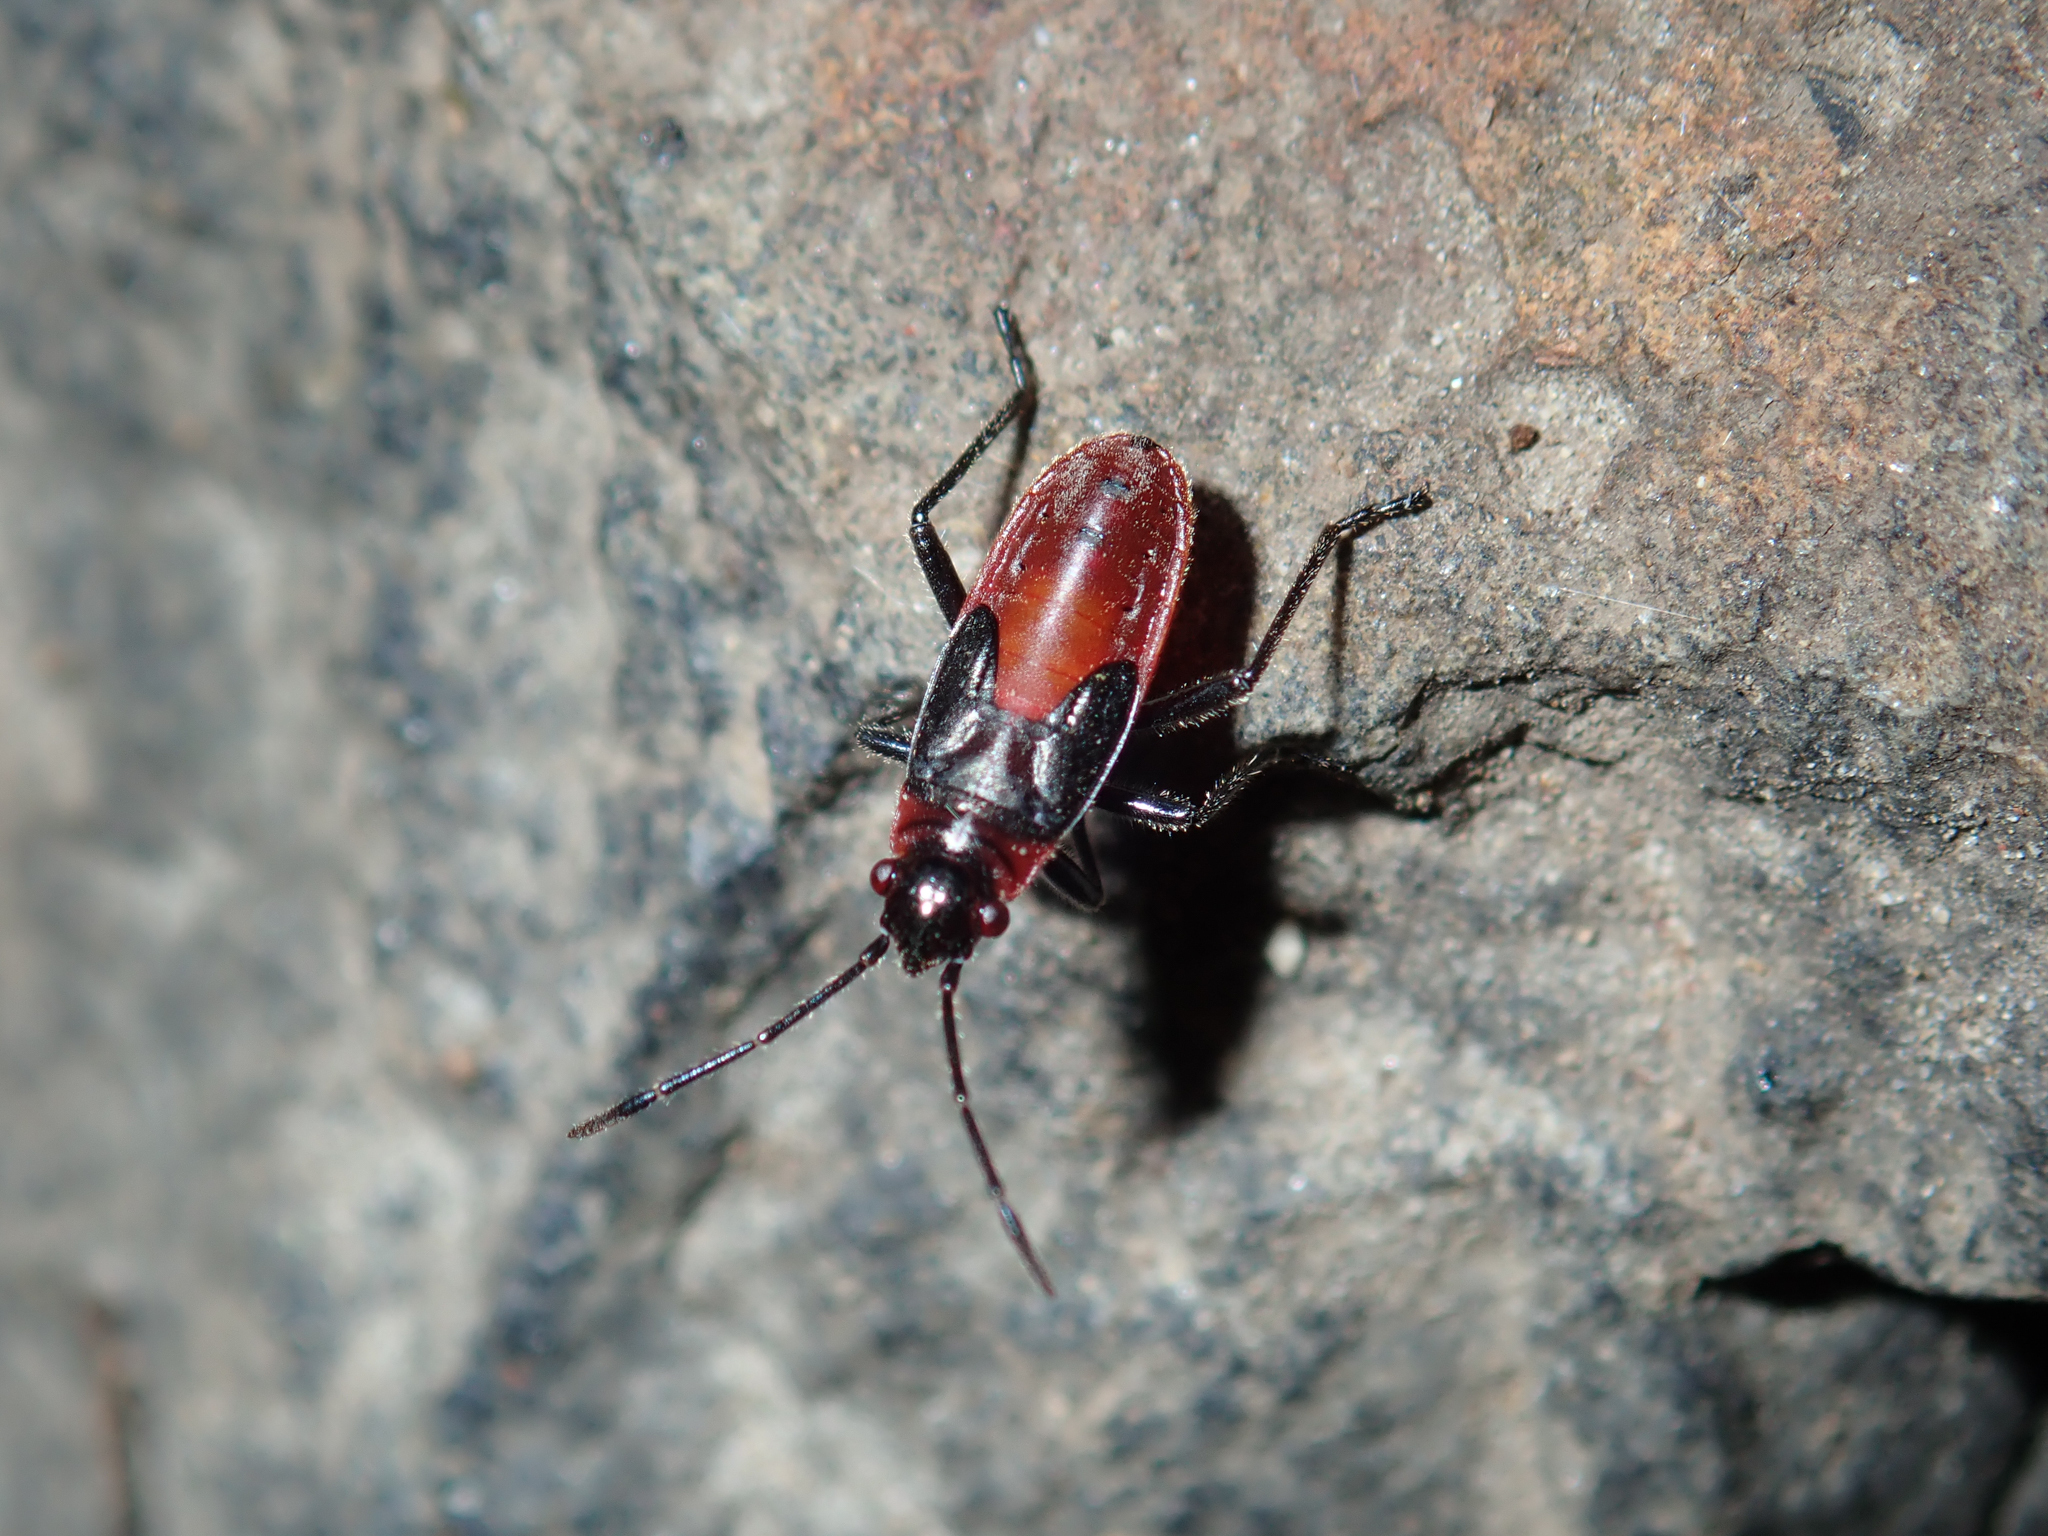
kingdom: Animalia
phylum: Arthropoda
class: Insecta
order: Hemiptera
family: Lygaeidae
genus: Arocatus
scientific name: Arocatus rusticus
